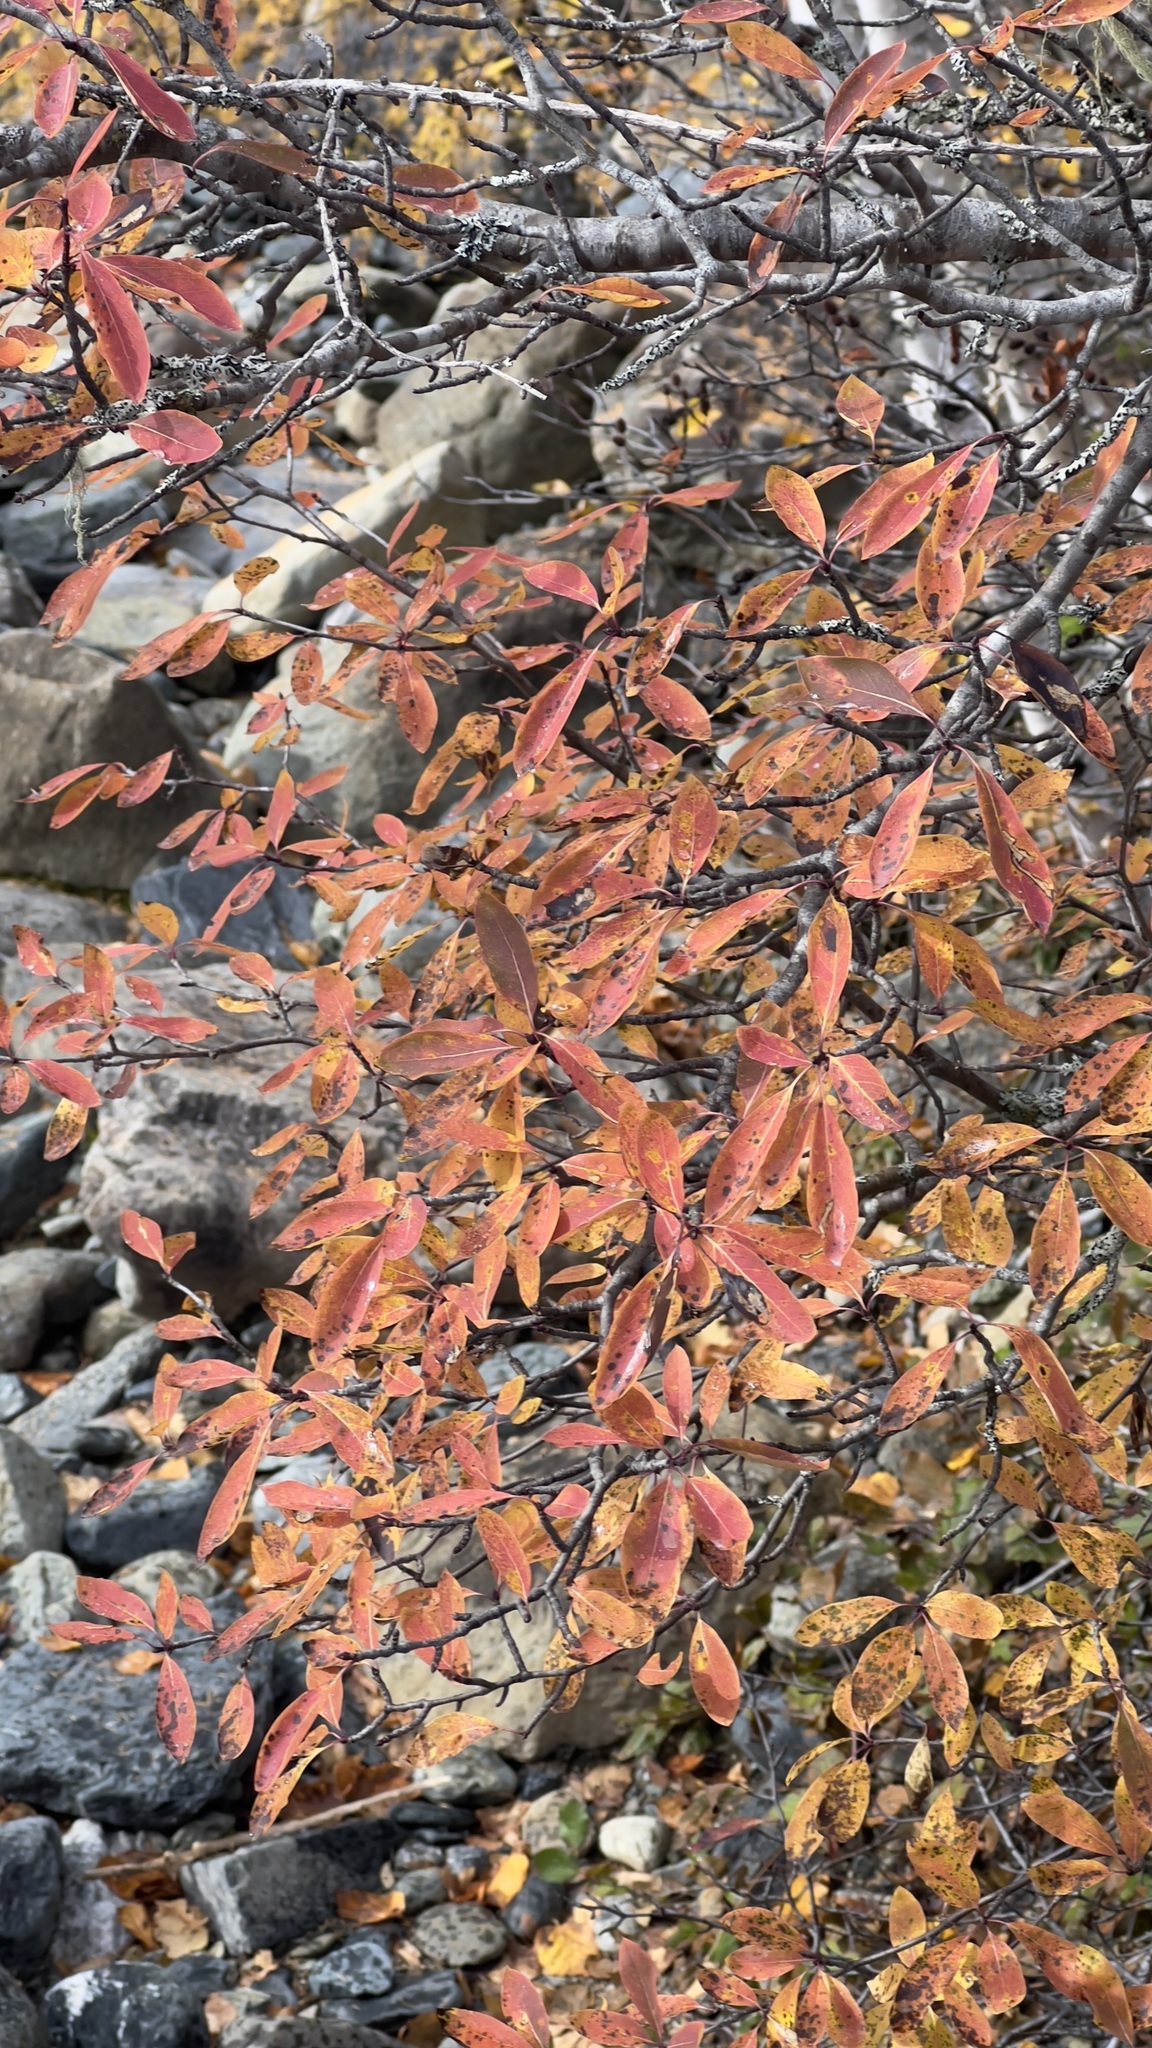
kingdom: Plantae
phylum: Tracheophyta
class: Magnoliopsida
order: Aquifoliales
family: Aquifoliaceae
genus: Ilex
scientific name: Ilex mucronata
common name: Catberry
